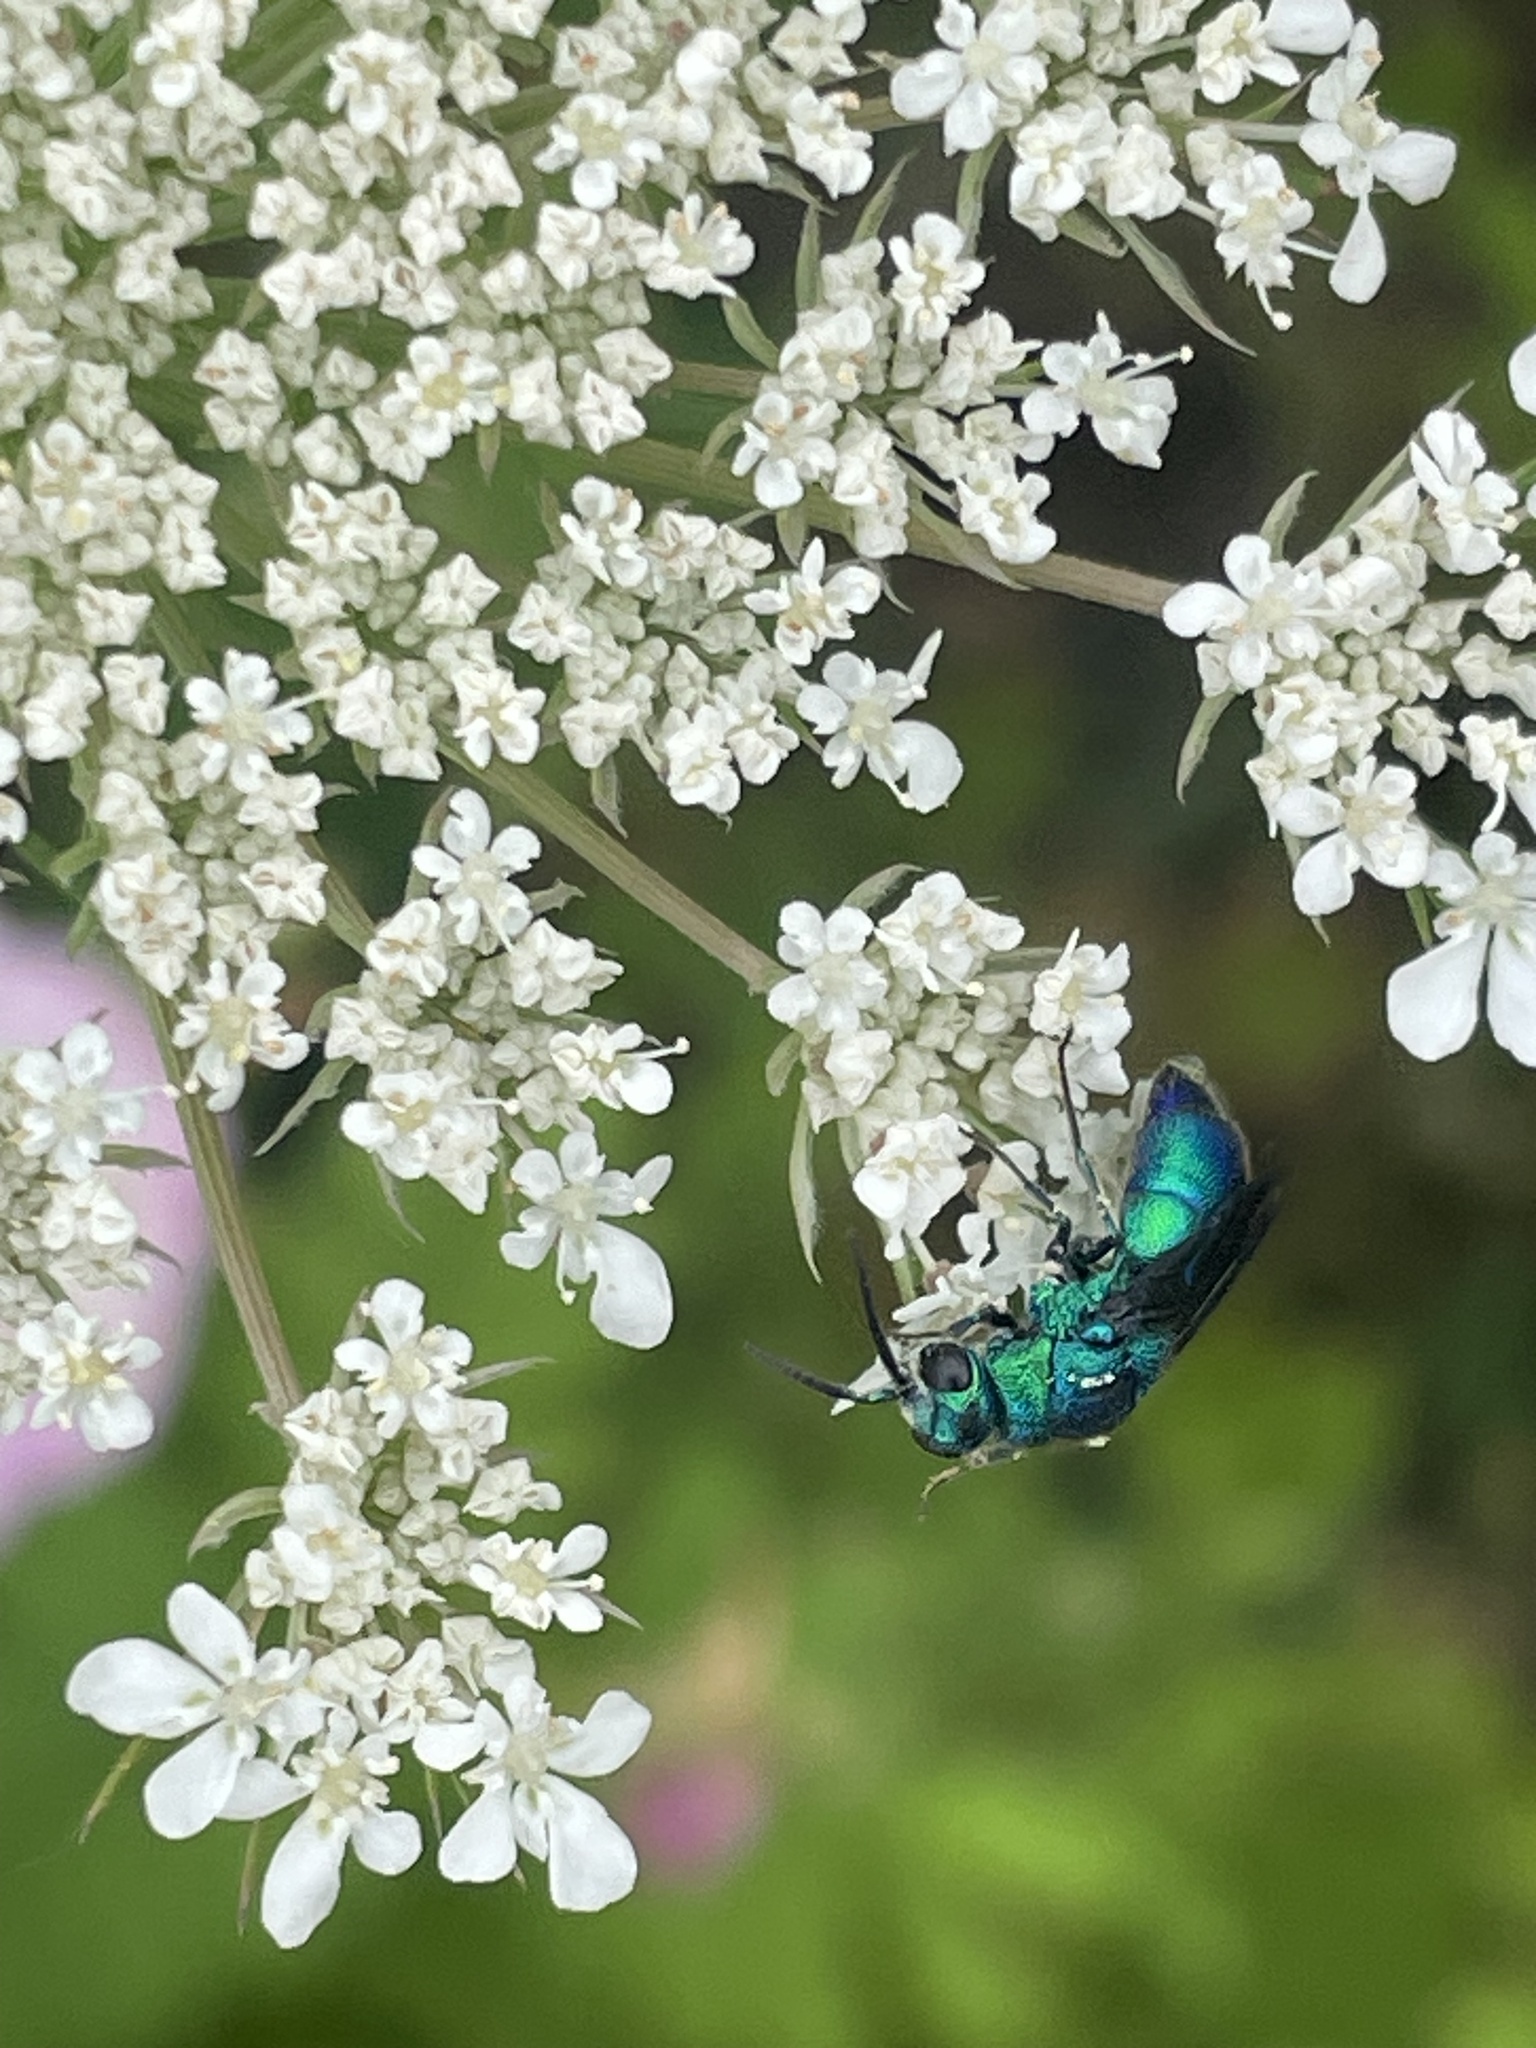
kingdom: Animalia
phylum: Arthropoda
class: Insecta
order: Hymenoptera
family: Chrysididae
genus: Chrysis
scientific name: Chrysis angolensis
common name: Cuckoo wasp
